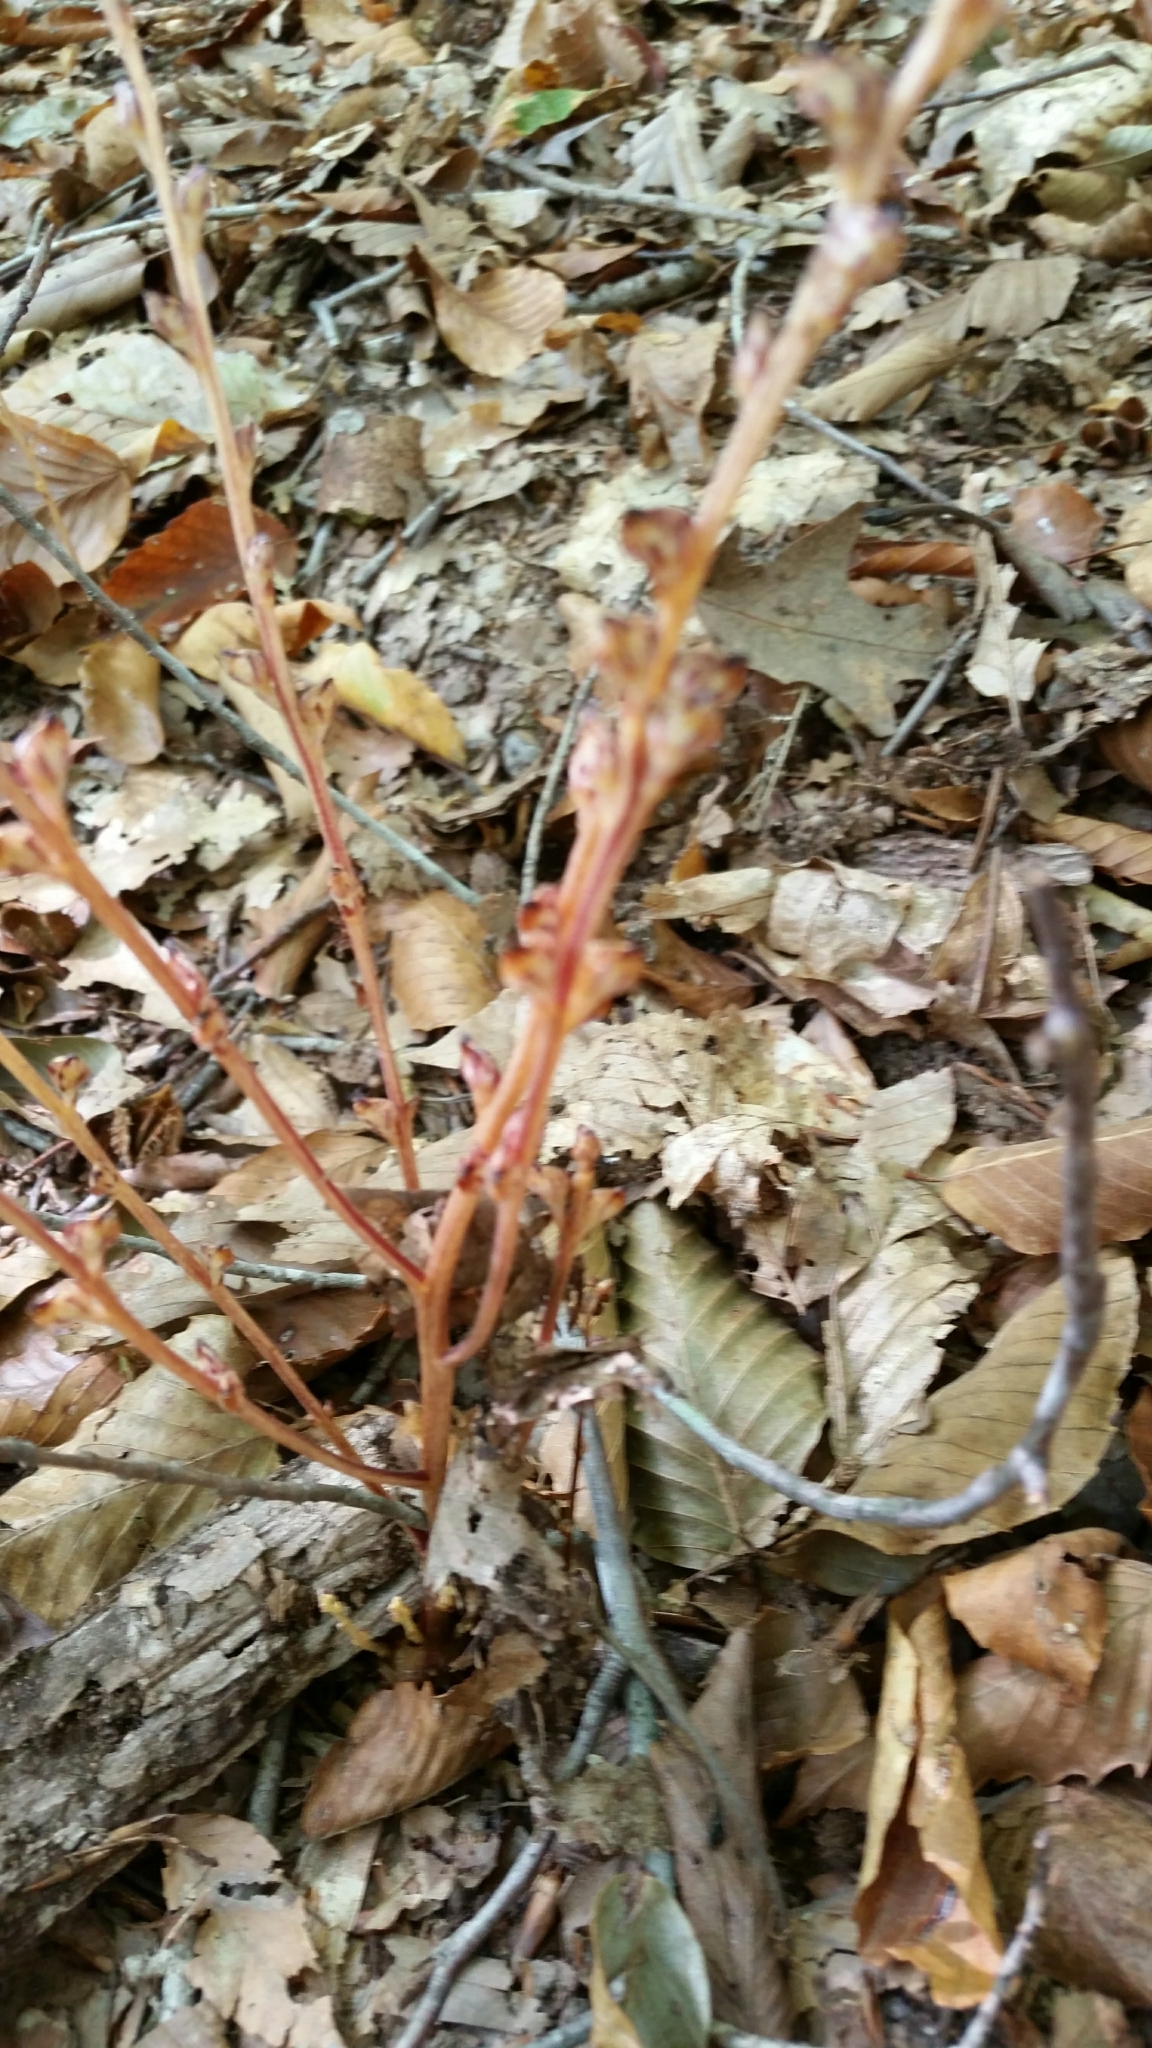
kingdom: Plantae
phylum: Tracheophyta
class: Magnoliopsida
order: Lamiales
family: Orobanchaceae
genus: Epifagus
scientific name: Epifagus virginiana
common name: Beechdrops
